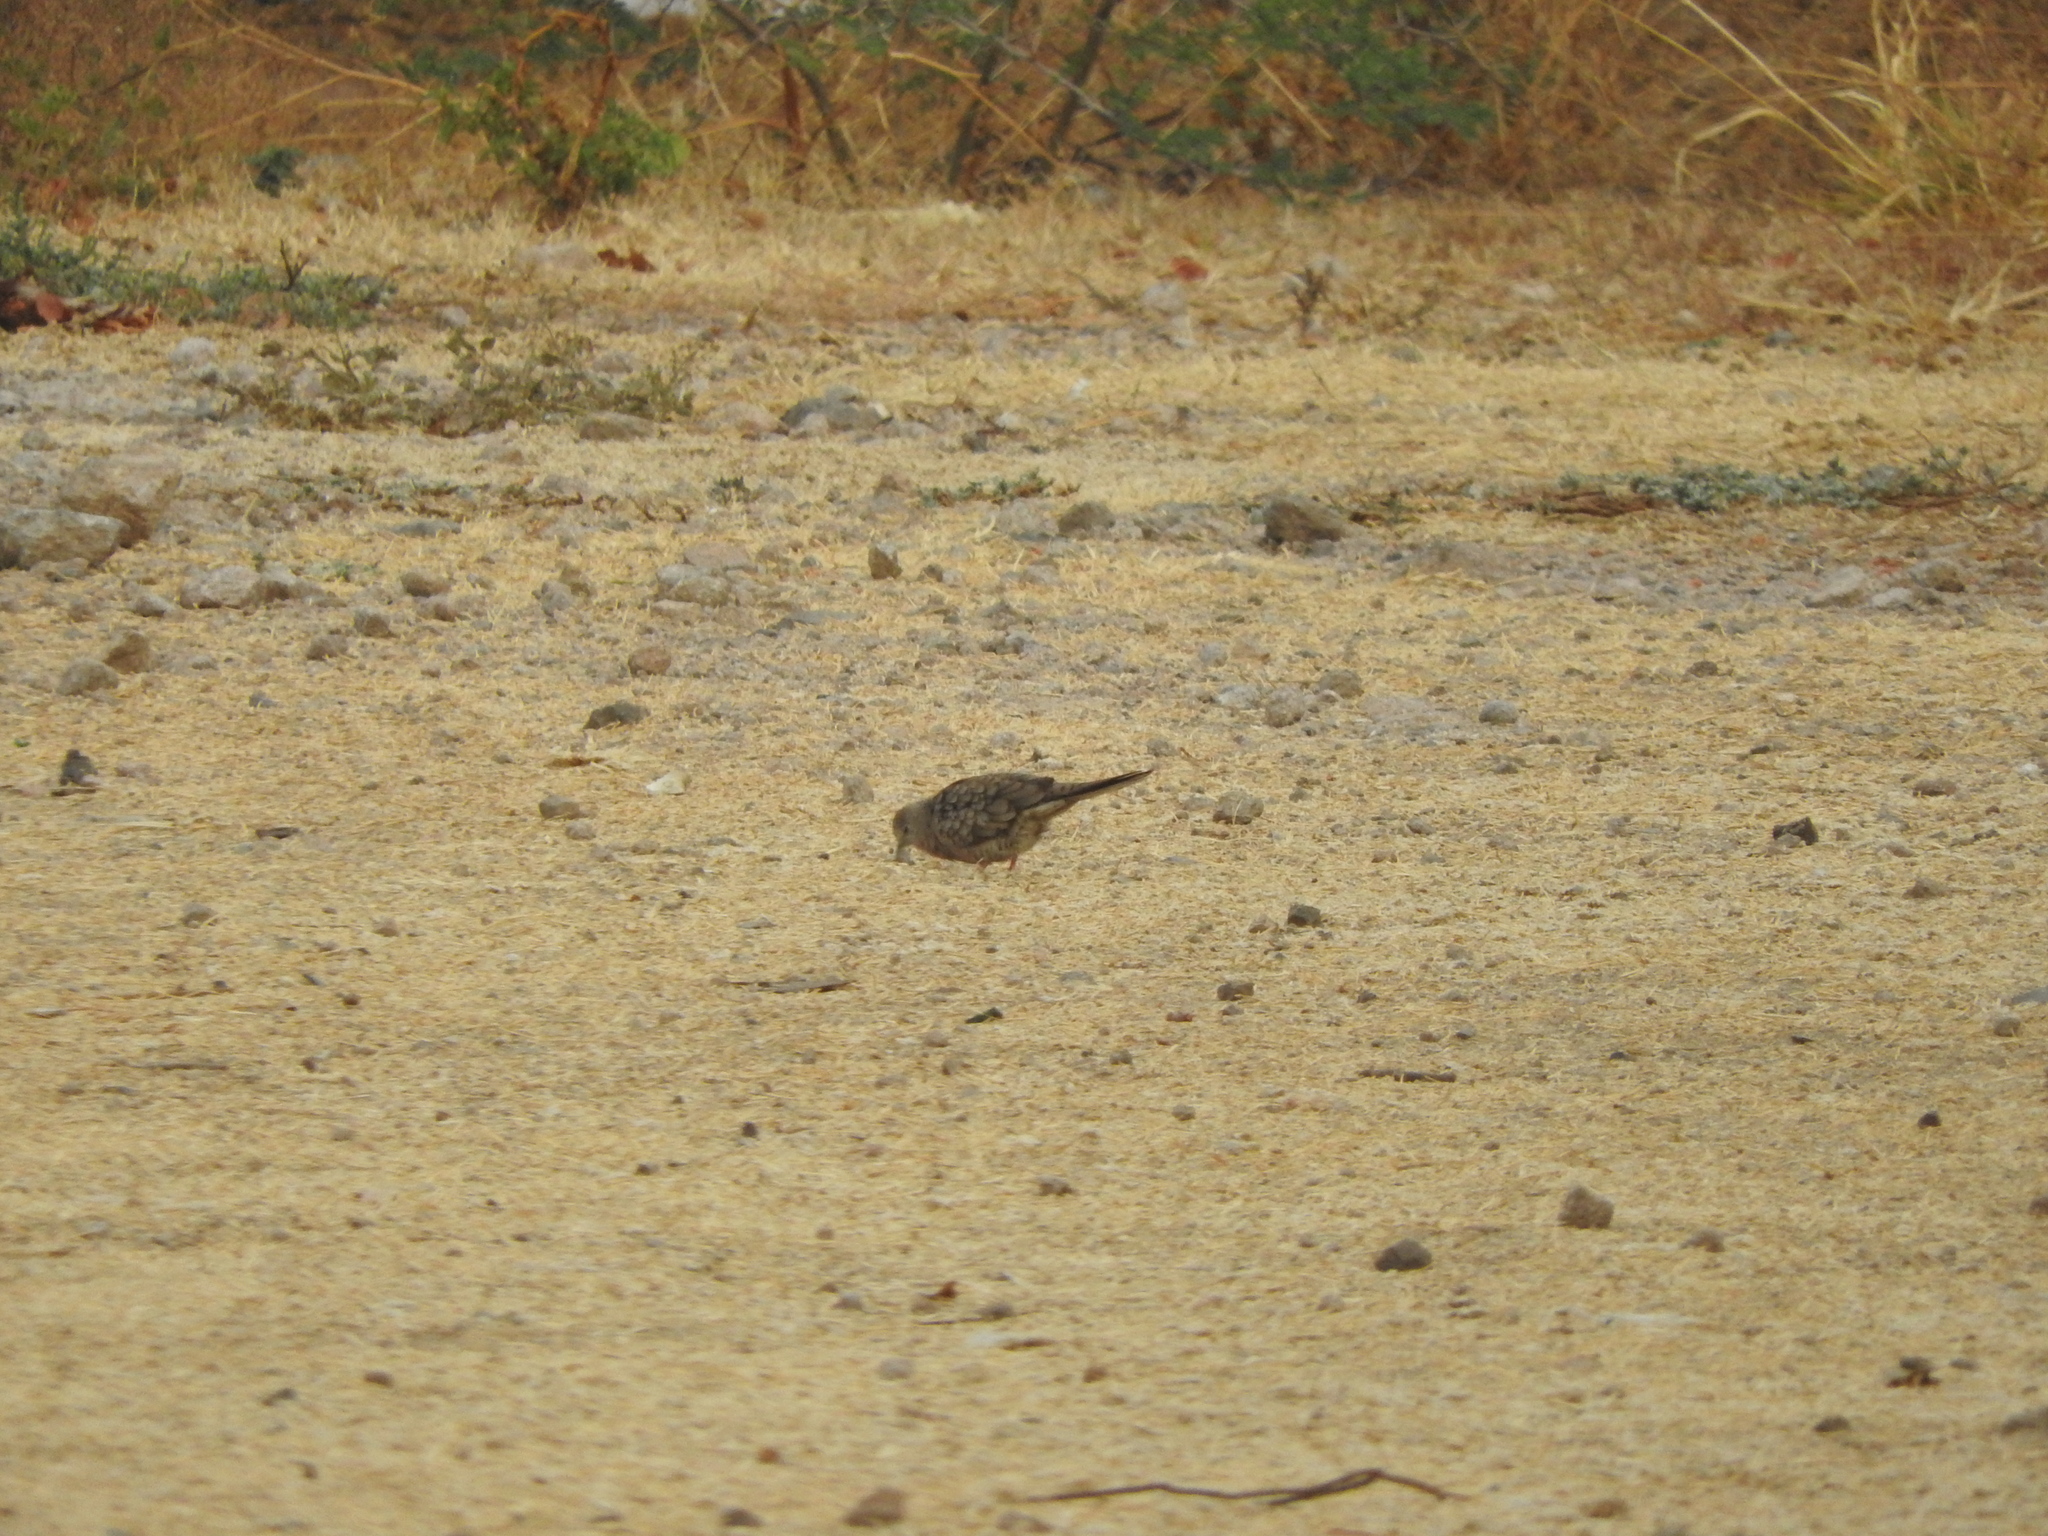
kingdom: Animalia
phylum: Chordata
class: Aves
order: Columbiformes
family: Columbidae
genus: Columbina
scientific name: Columbina inca
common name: Inca dove
